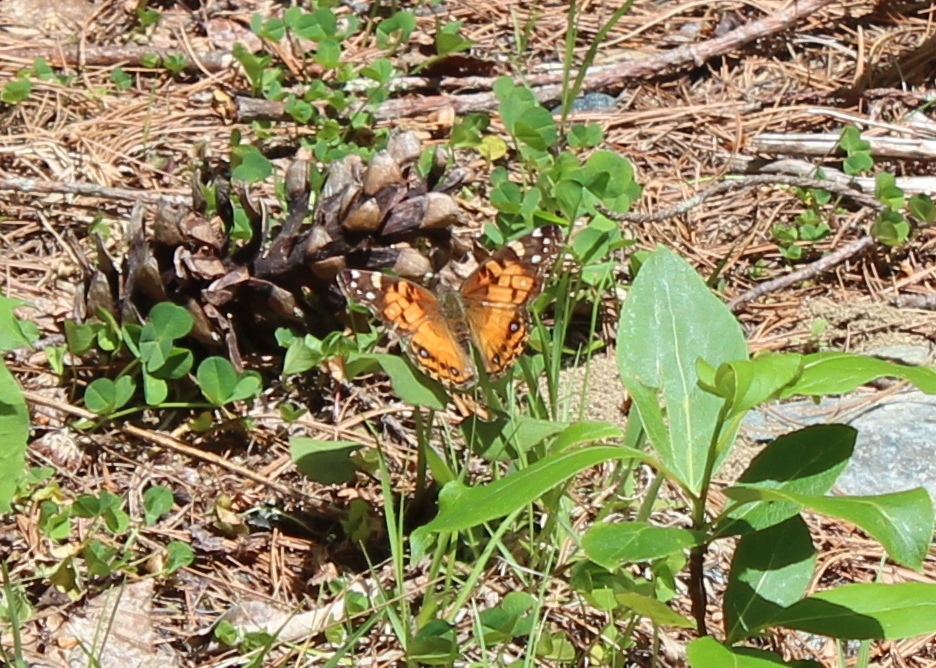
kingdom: Animalia
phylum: Arthropoda
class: Insecta
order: Lepidoptera
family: Nymphalidae
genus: Vanessa
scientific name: Vanessa virginiensis
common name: American lady
